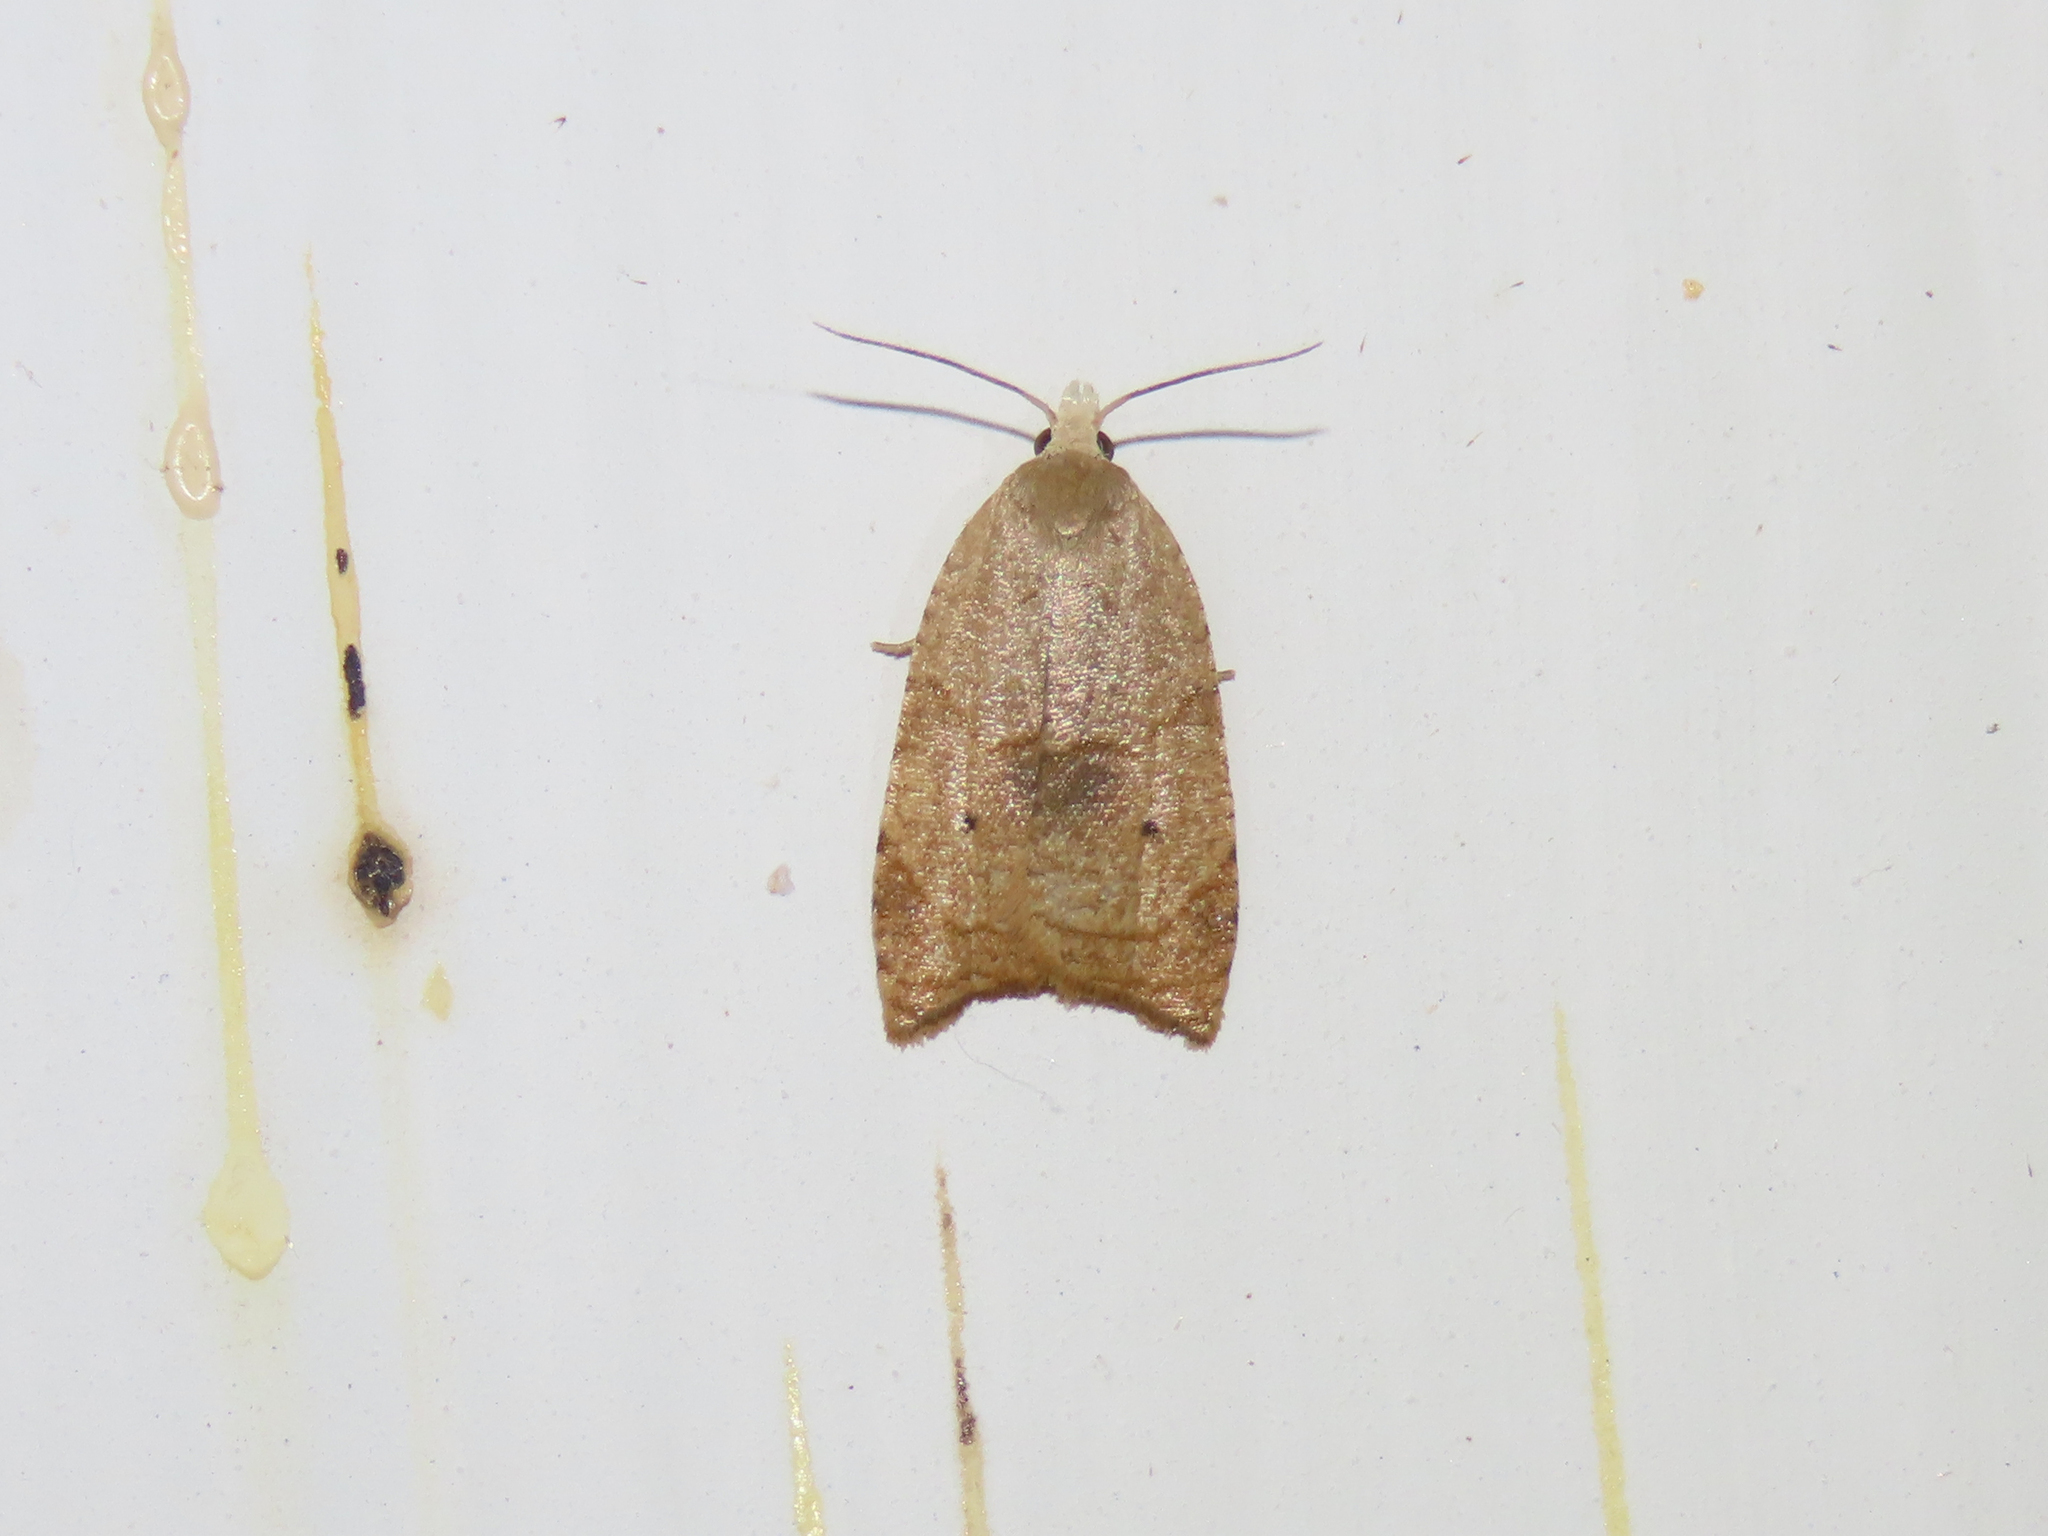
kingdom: Animalia
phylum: Arthropoda
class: Insecta
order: Lepidoptera
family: Tortricidae
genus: Coelostathma
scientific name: Coelostathma discopunctana
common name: Batman moth
